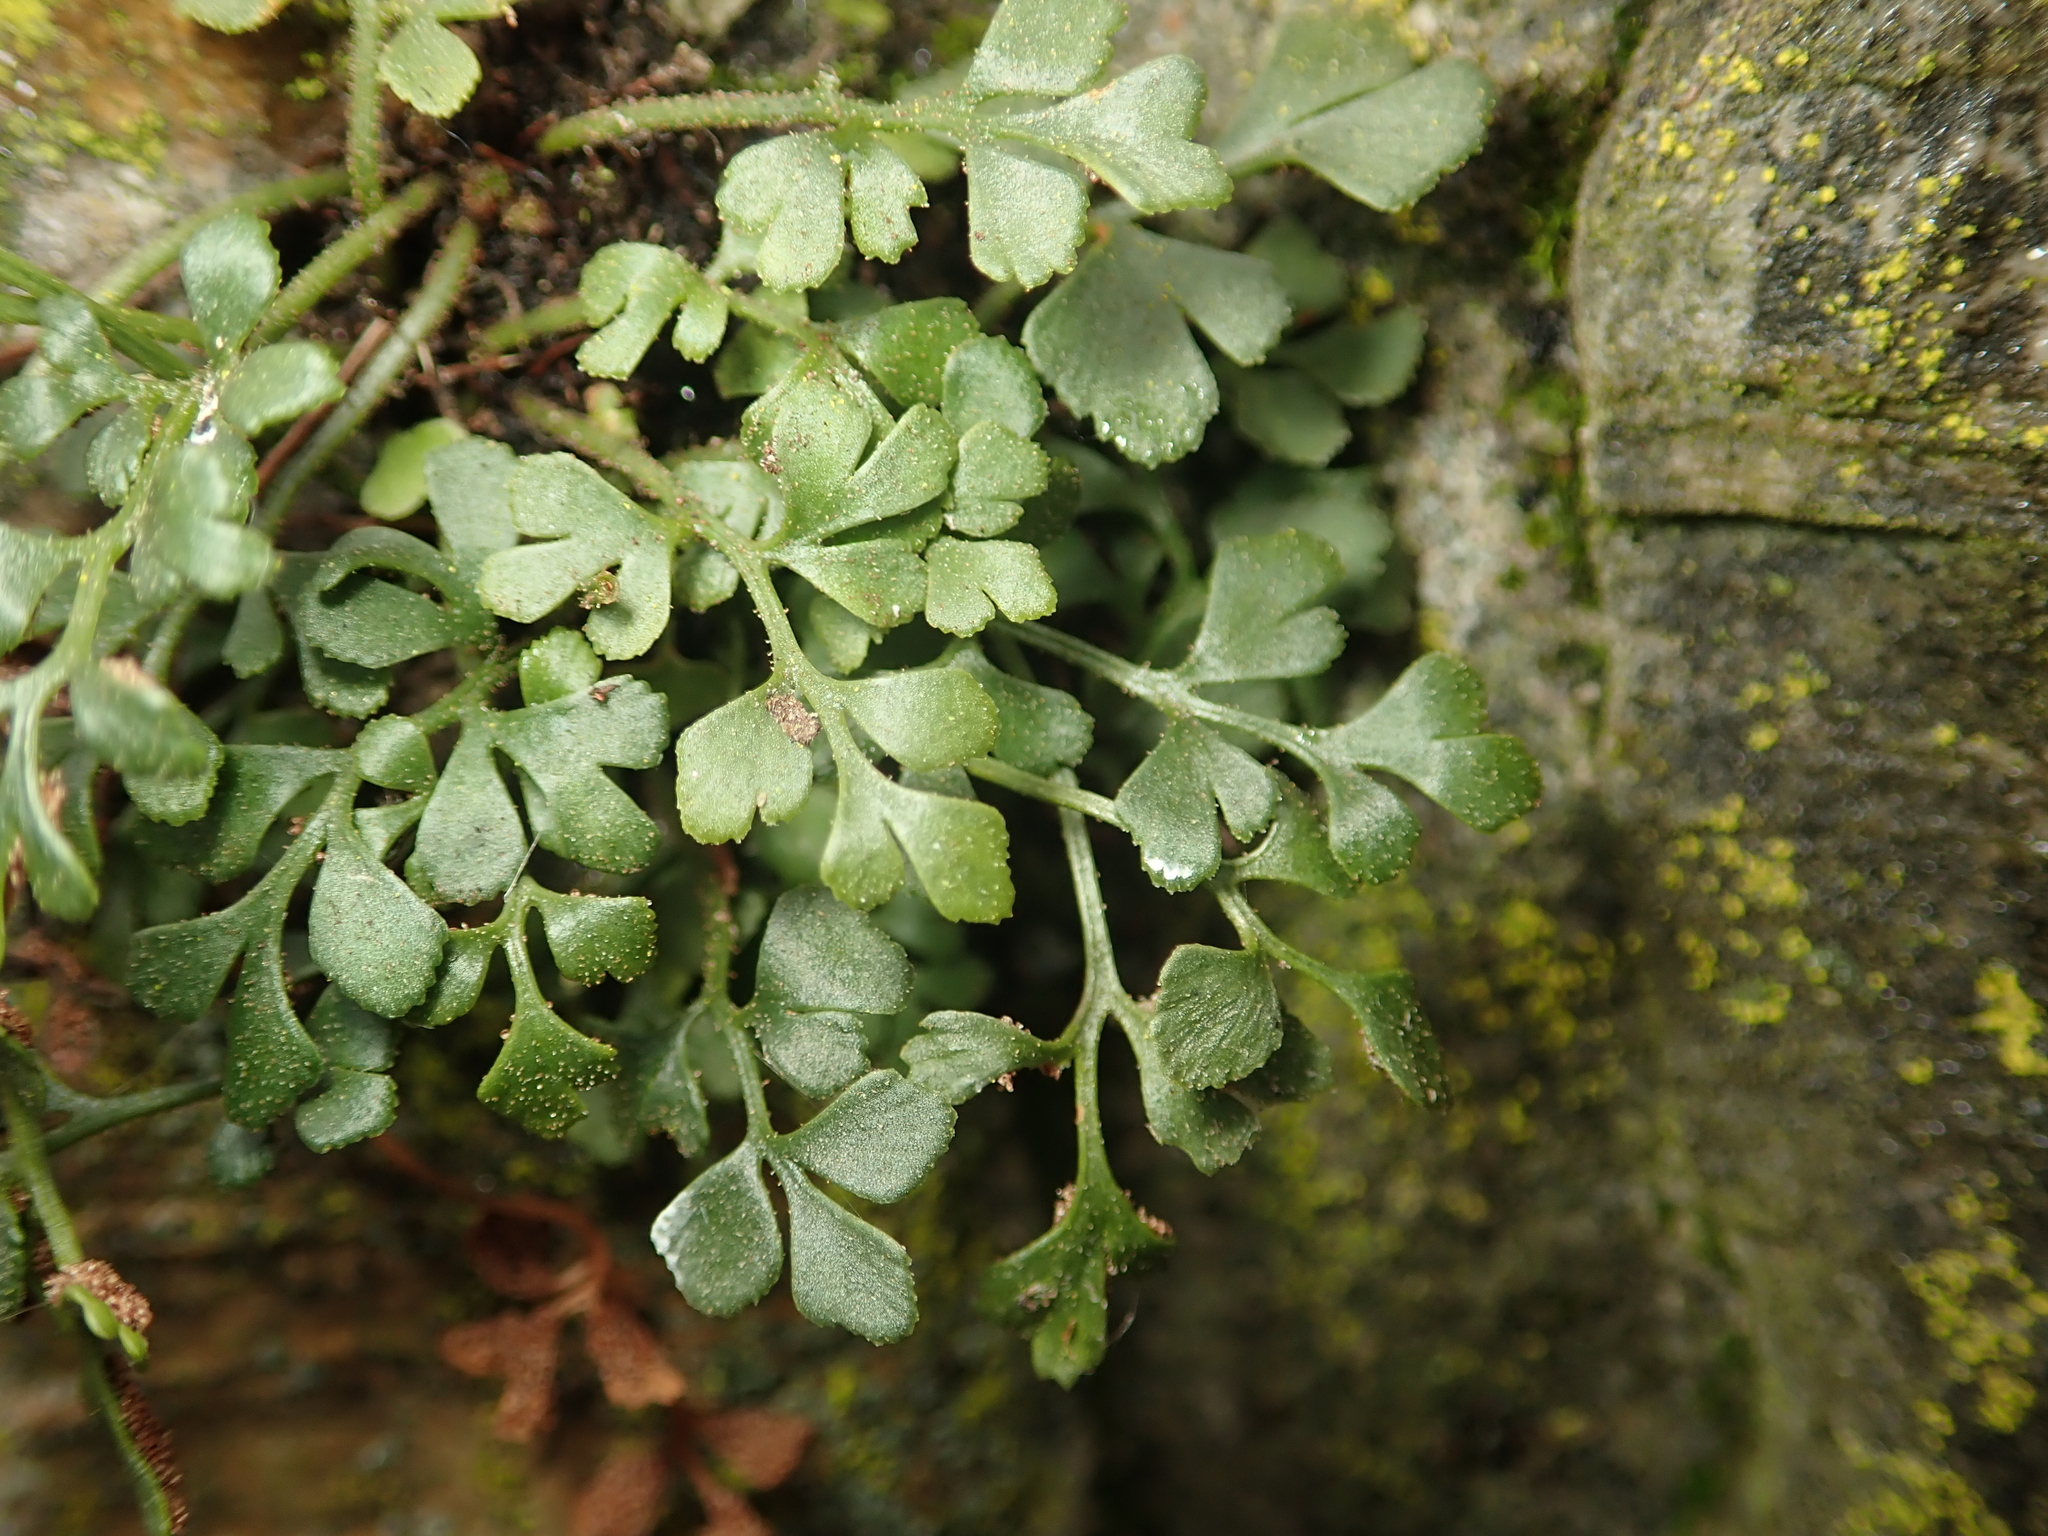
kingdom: Plantae
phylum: Tracheophyta
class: Polypodiopsida
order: Polypodiales
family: Aspleniaceae
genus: Asplenium
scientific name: Asplenium ruta-muraria
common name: Wall-rue
